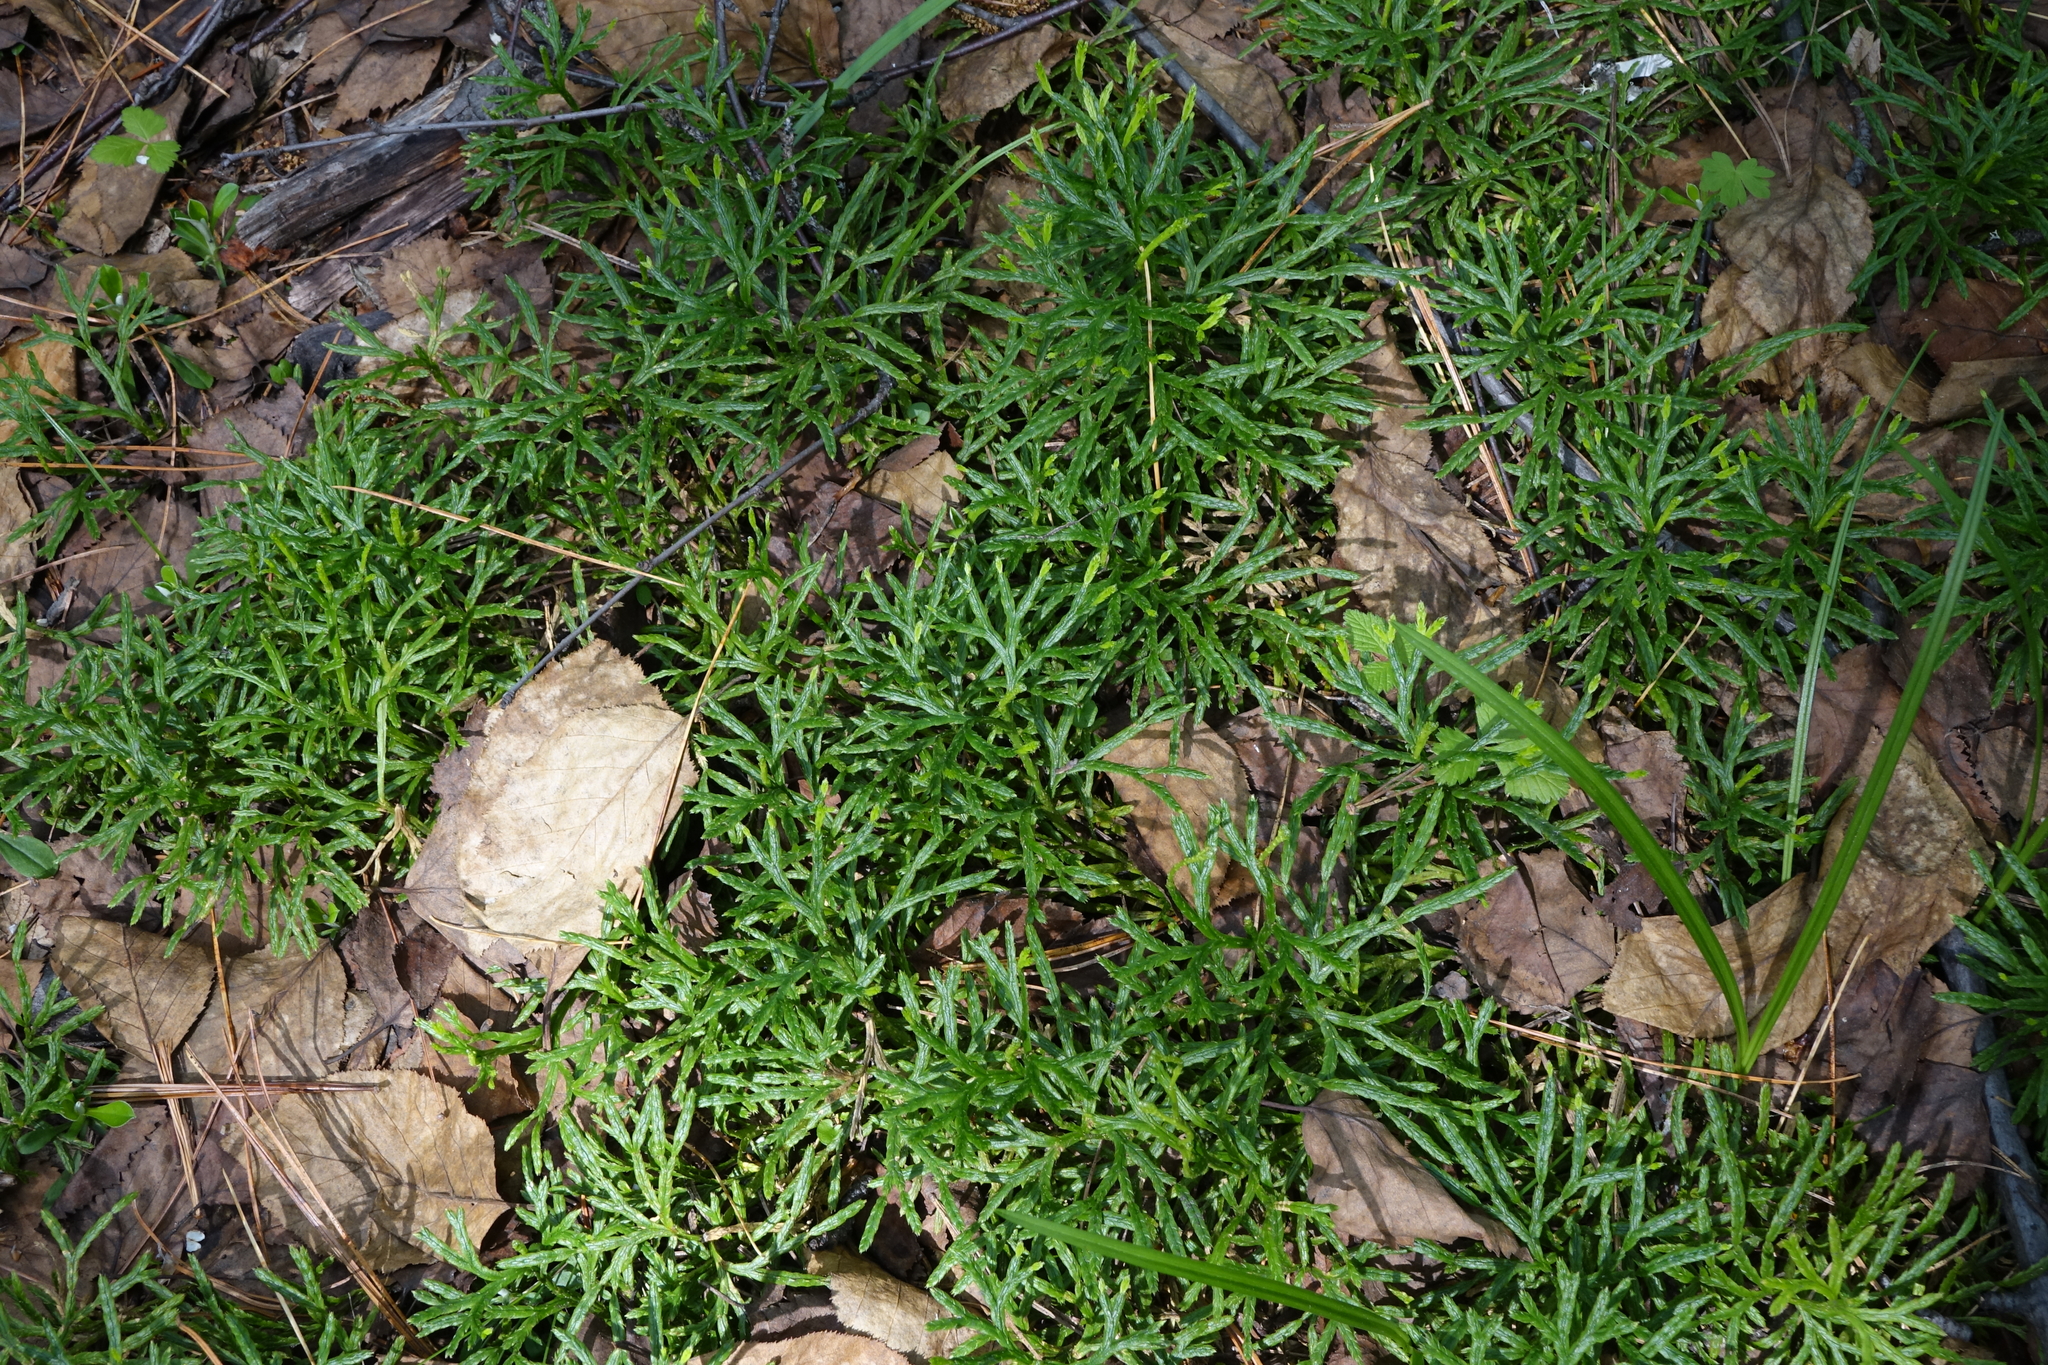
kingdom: Plantae
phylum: Tracheophyta
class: Lycopodiopsida
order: Lycopodiales
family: Lycopodiaceae
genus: Diphasiastrum
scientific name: Diphasiastrum complanatum
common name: Northern running-pine
